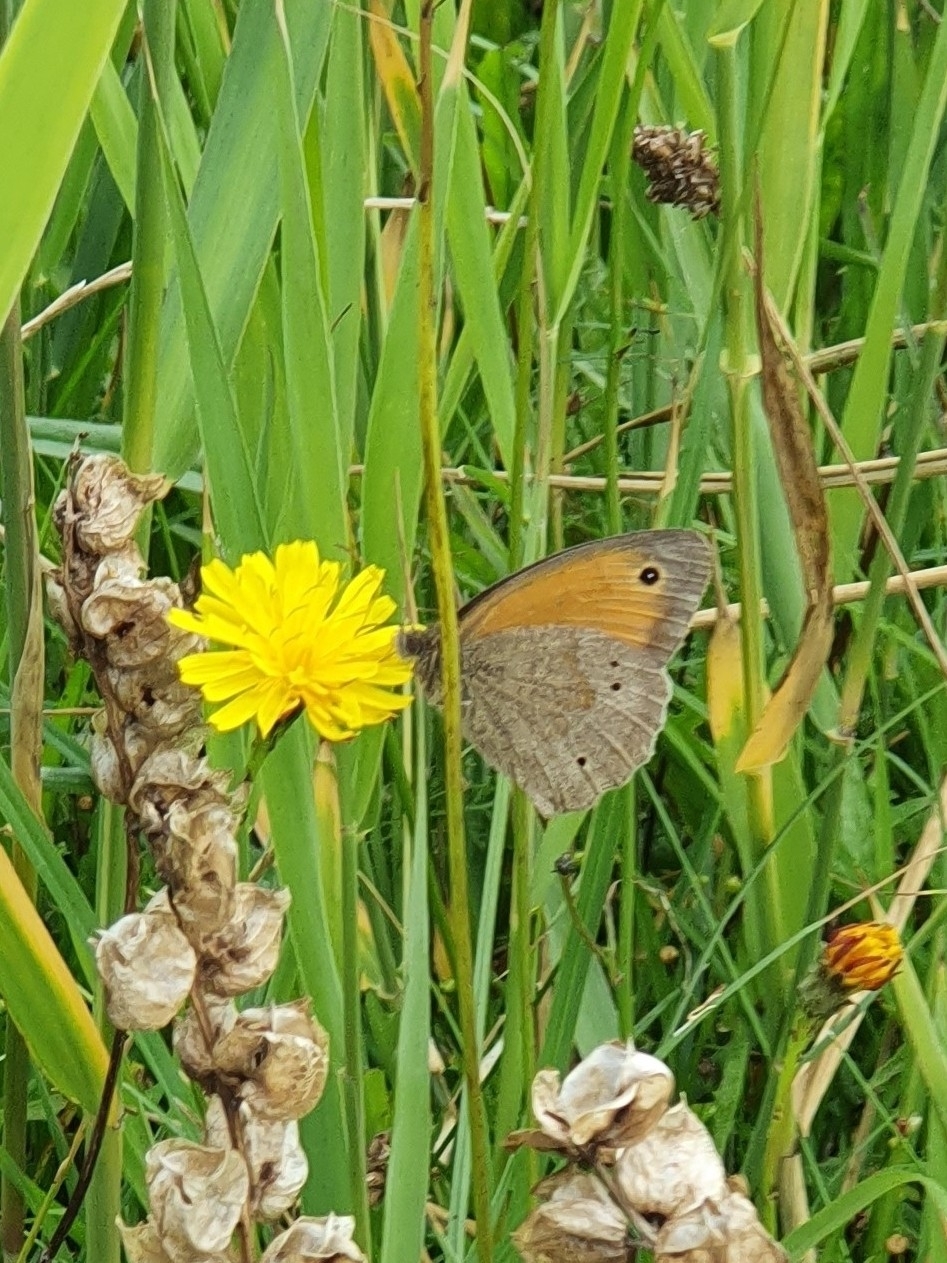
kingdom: Animalia
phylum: Arthropoda
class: Insecta
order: Lepidoptera
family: Nymphalidae
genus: Maniola
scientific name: Maniola jurtina
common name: Meadow brown
